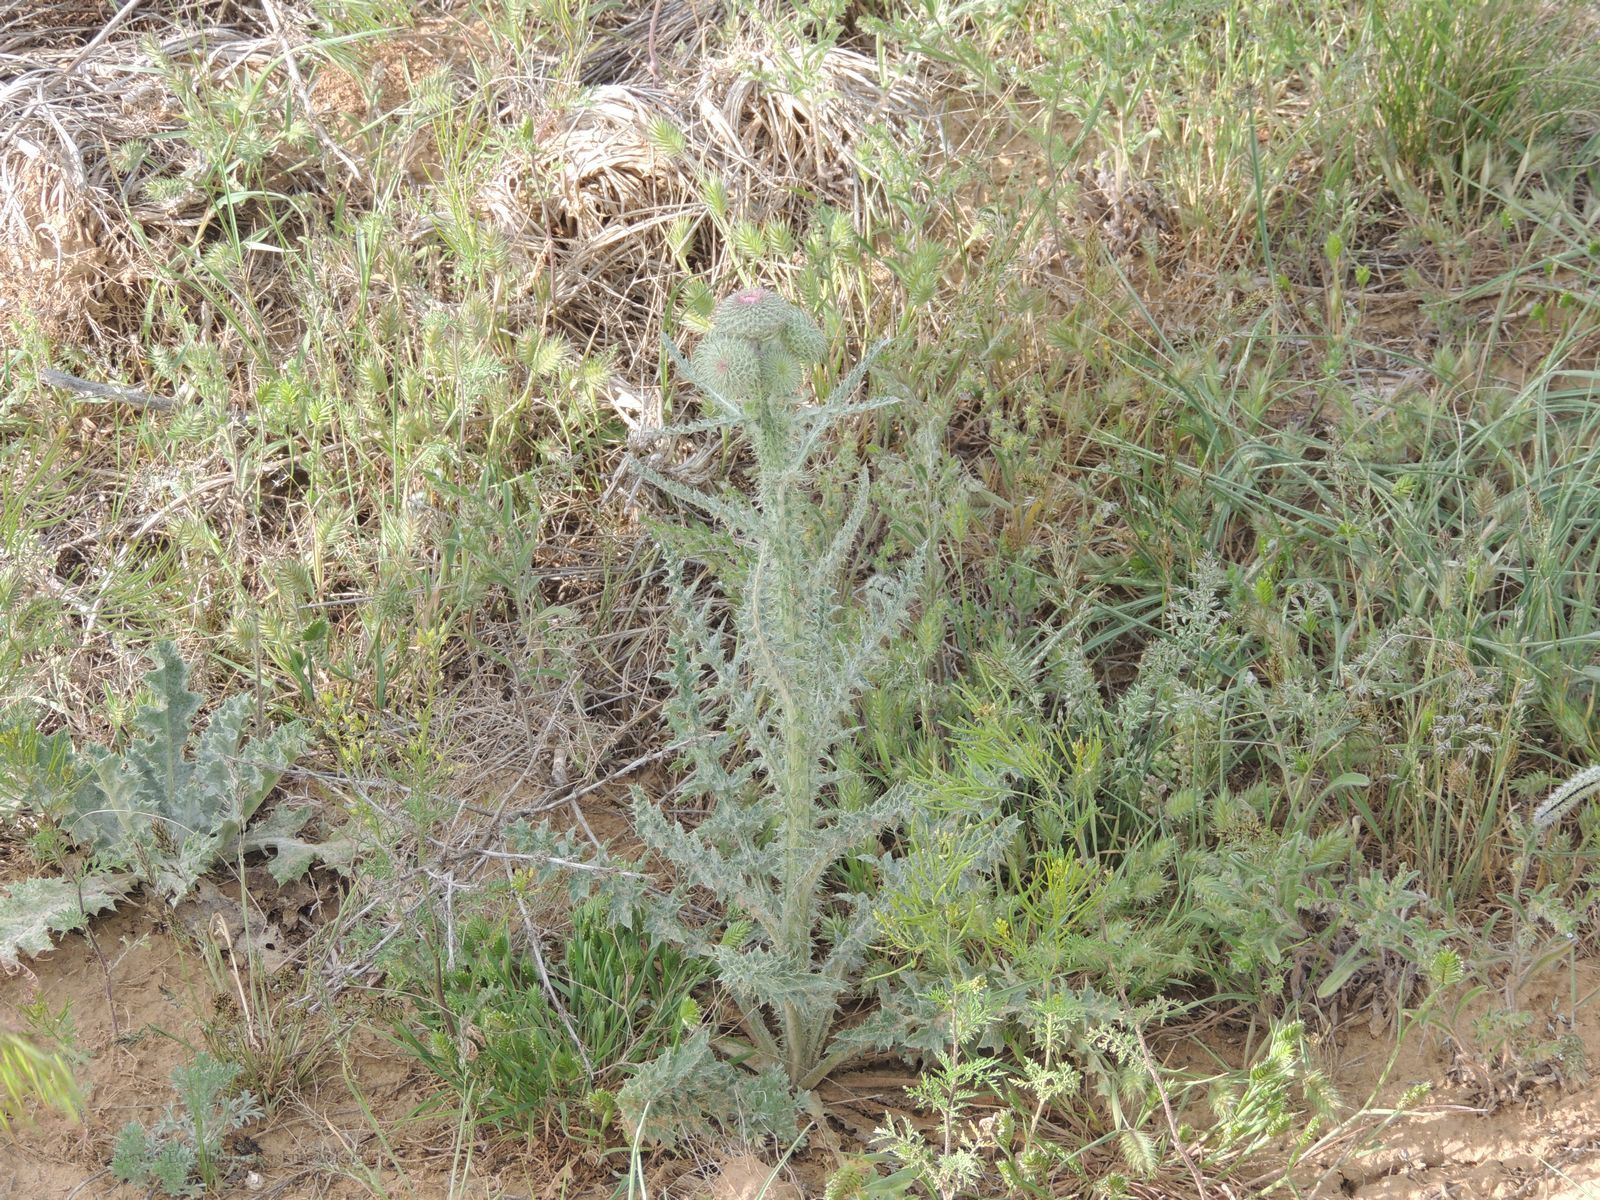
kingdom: Plantae
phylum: Tracheophyta
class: Magnoliopsida
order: Asterales
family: Asteraceae
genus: Carduus
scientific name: Carduus uncinatus
